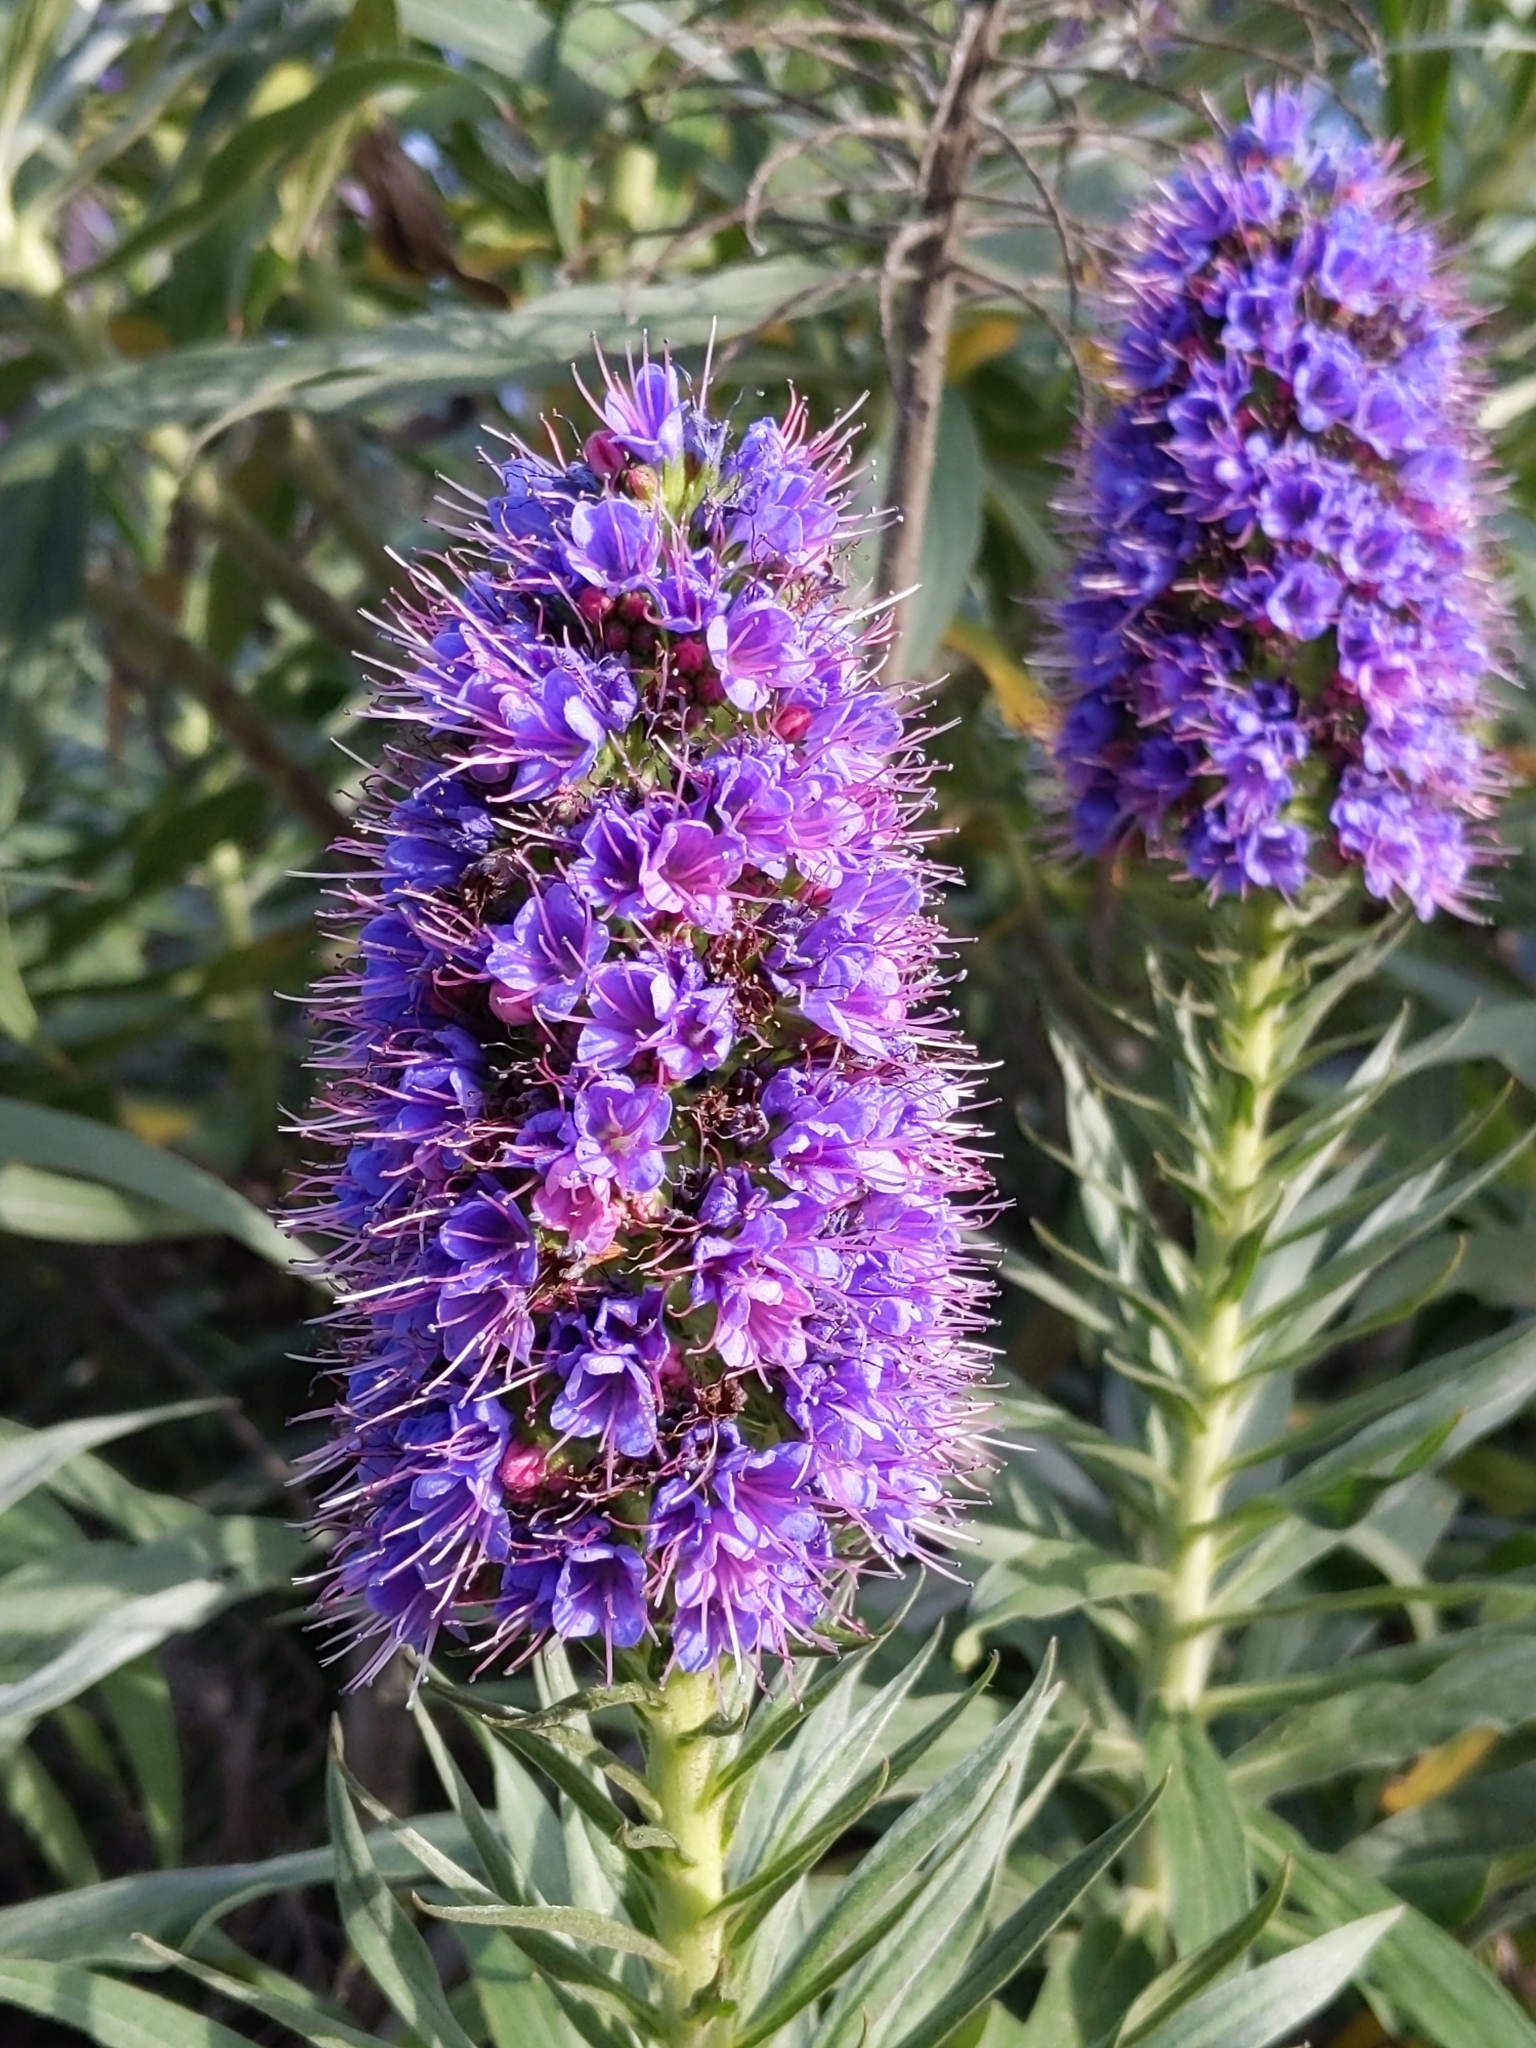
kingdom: Plantae
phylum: Tracheophyta
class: Magnoliopsida
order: Boraginales
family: Boraginaceae
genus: Echium
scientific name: Echium candicans
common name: Pride of madeira
